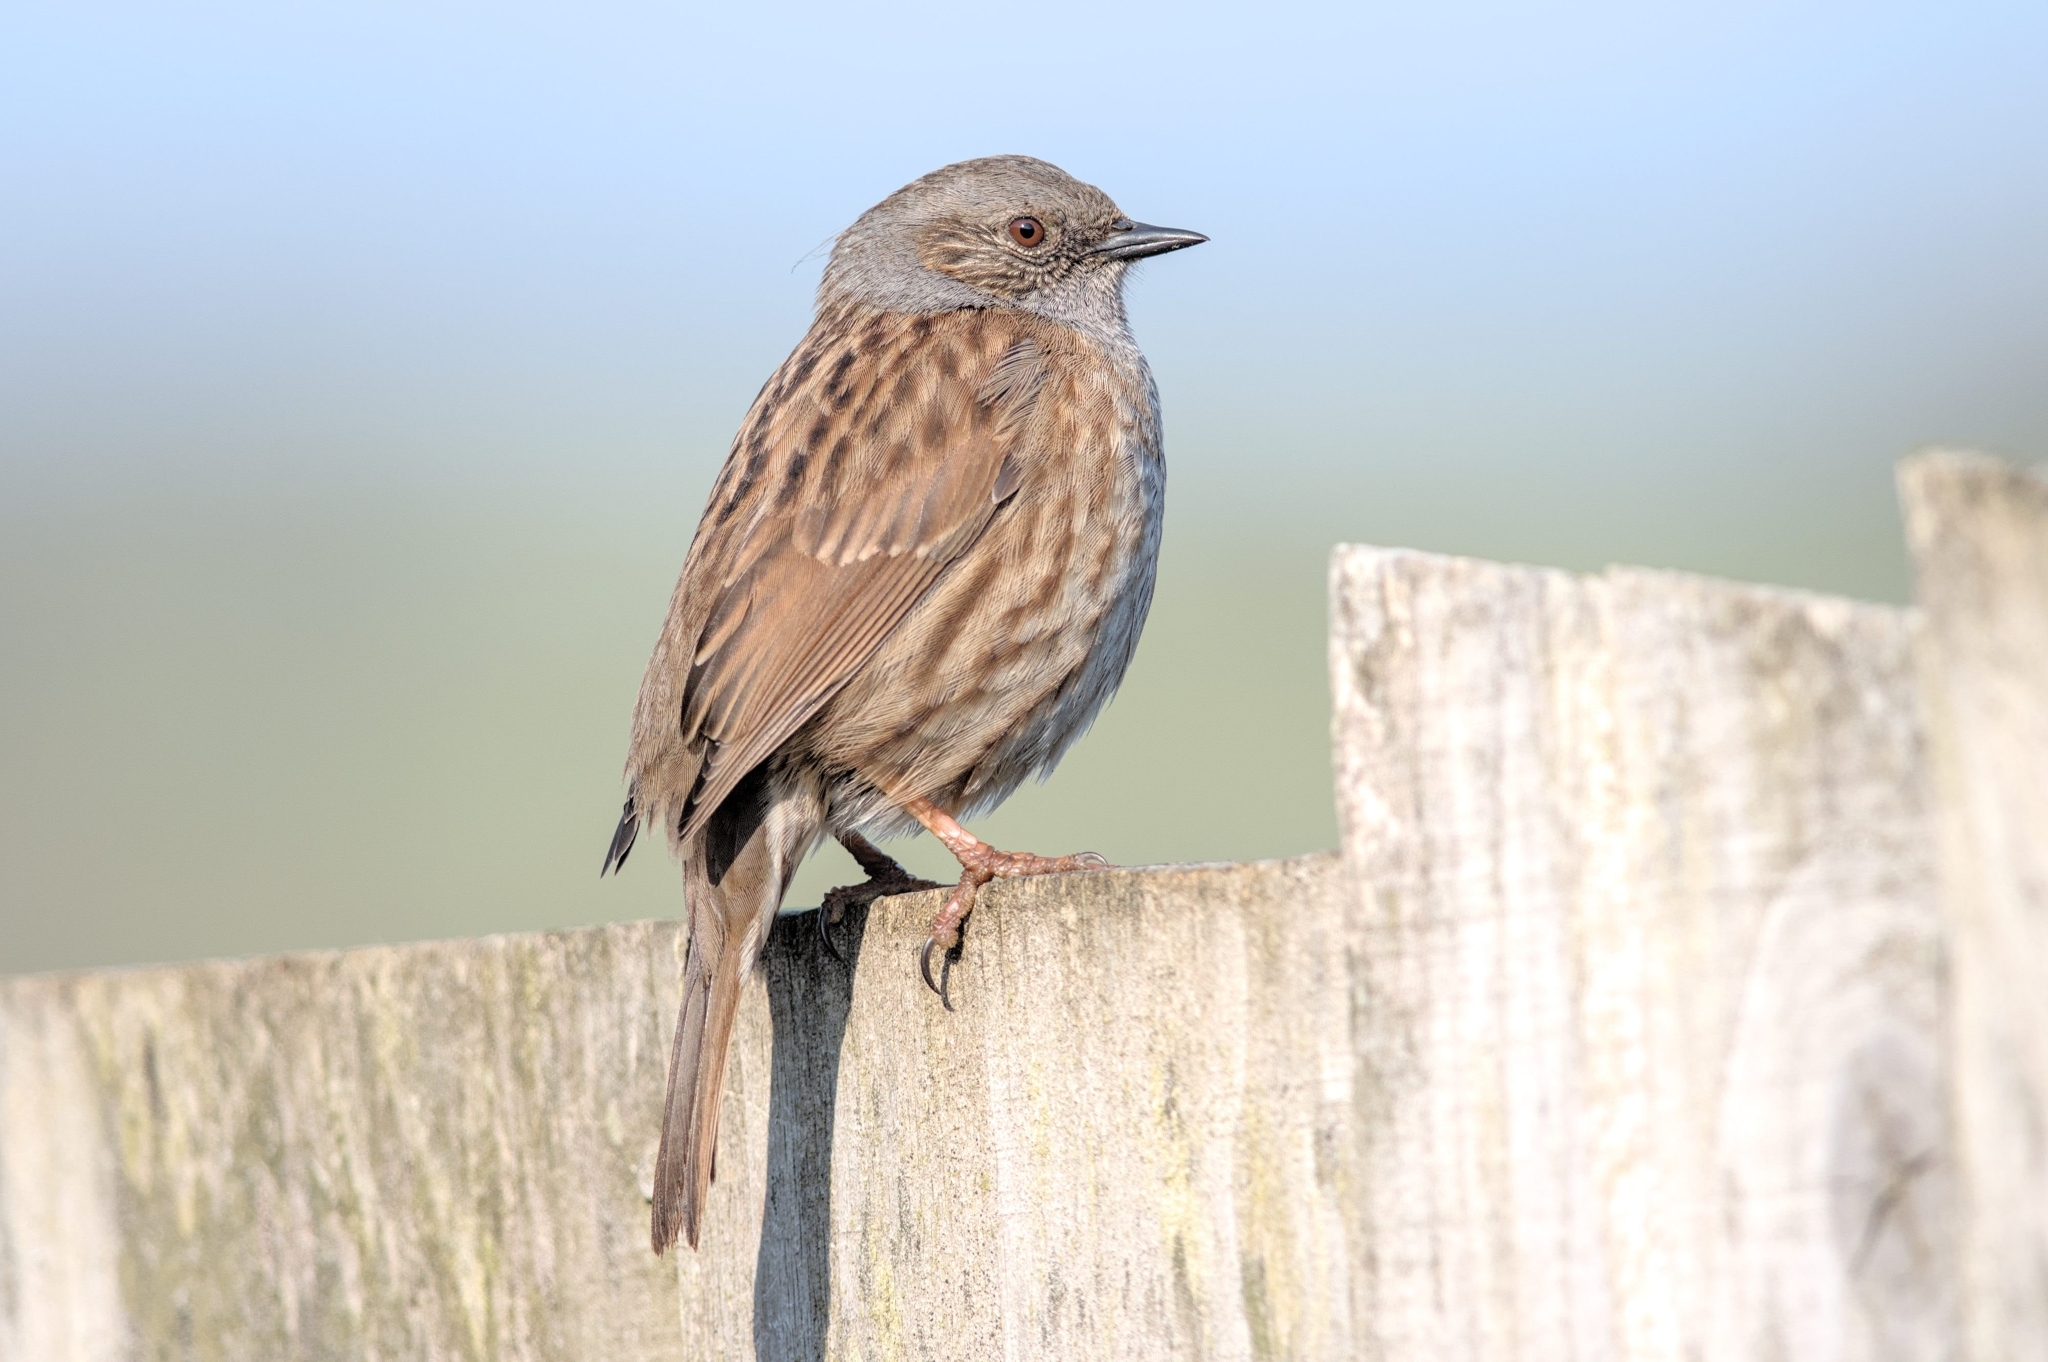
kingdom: Animalia
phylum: Chordata
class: Aves
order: Passeriformes
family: Prunellidae
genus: Prunella
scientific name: Prunella modularis
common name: Dunnock
